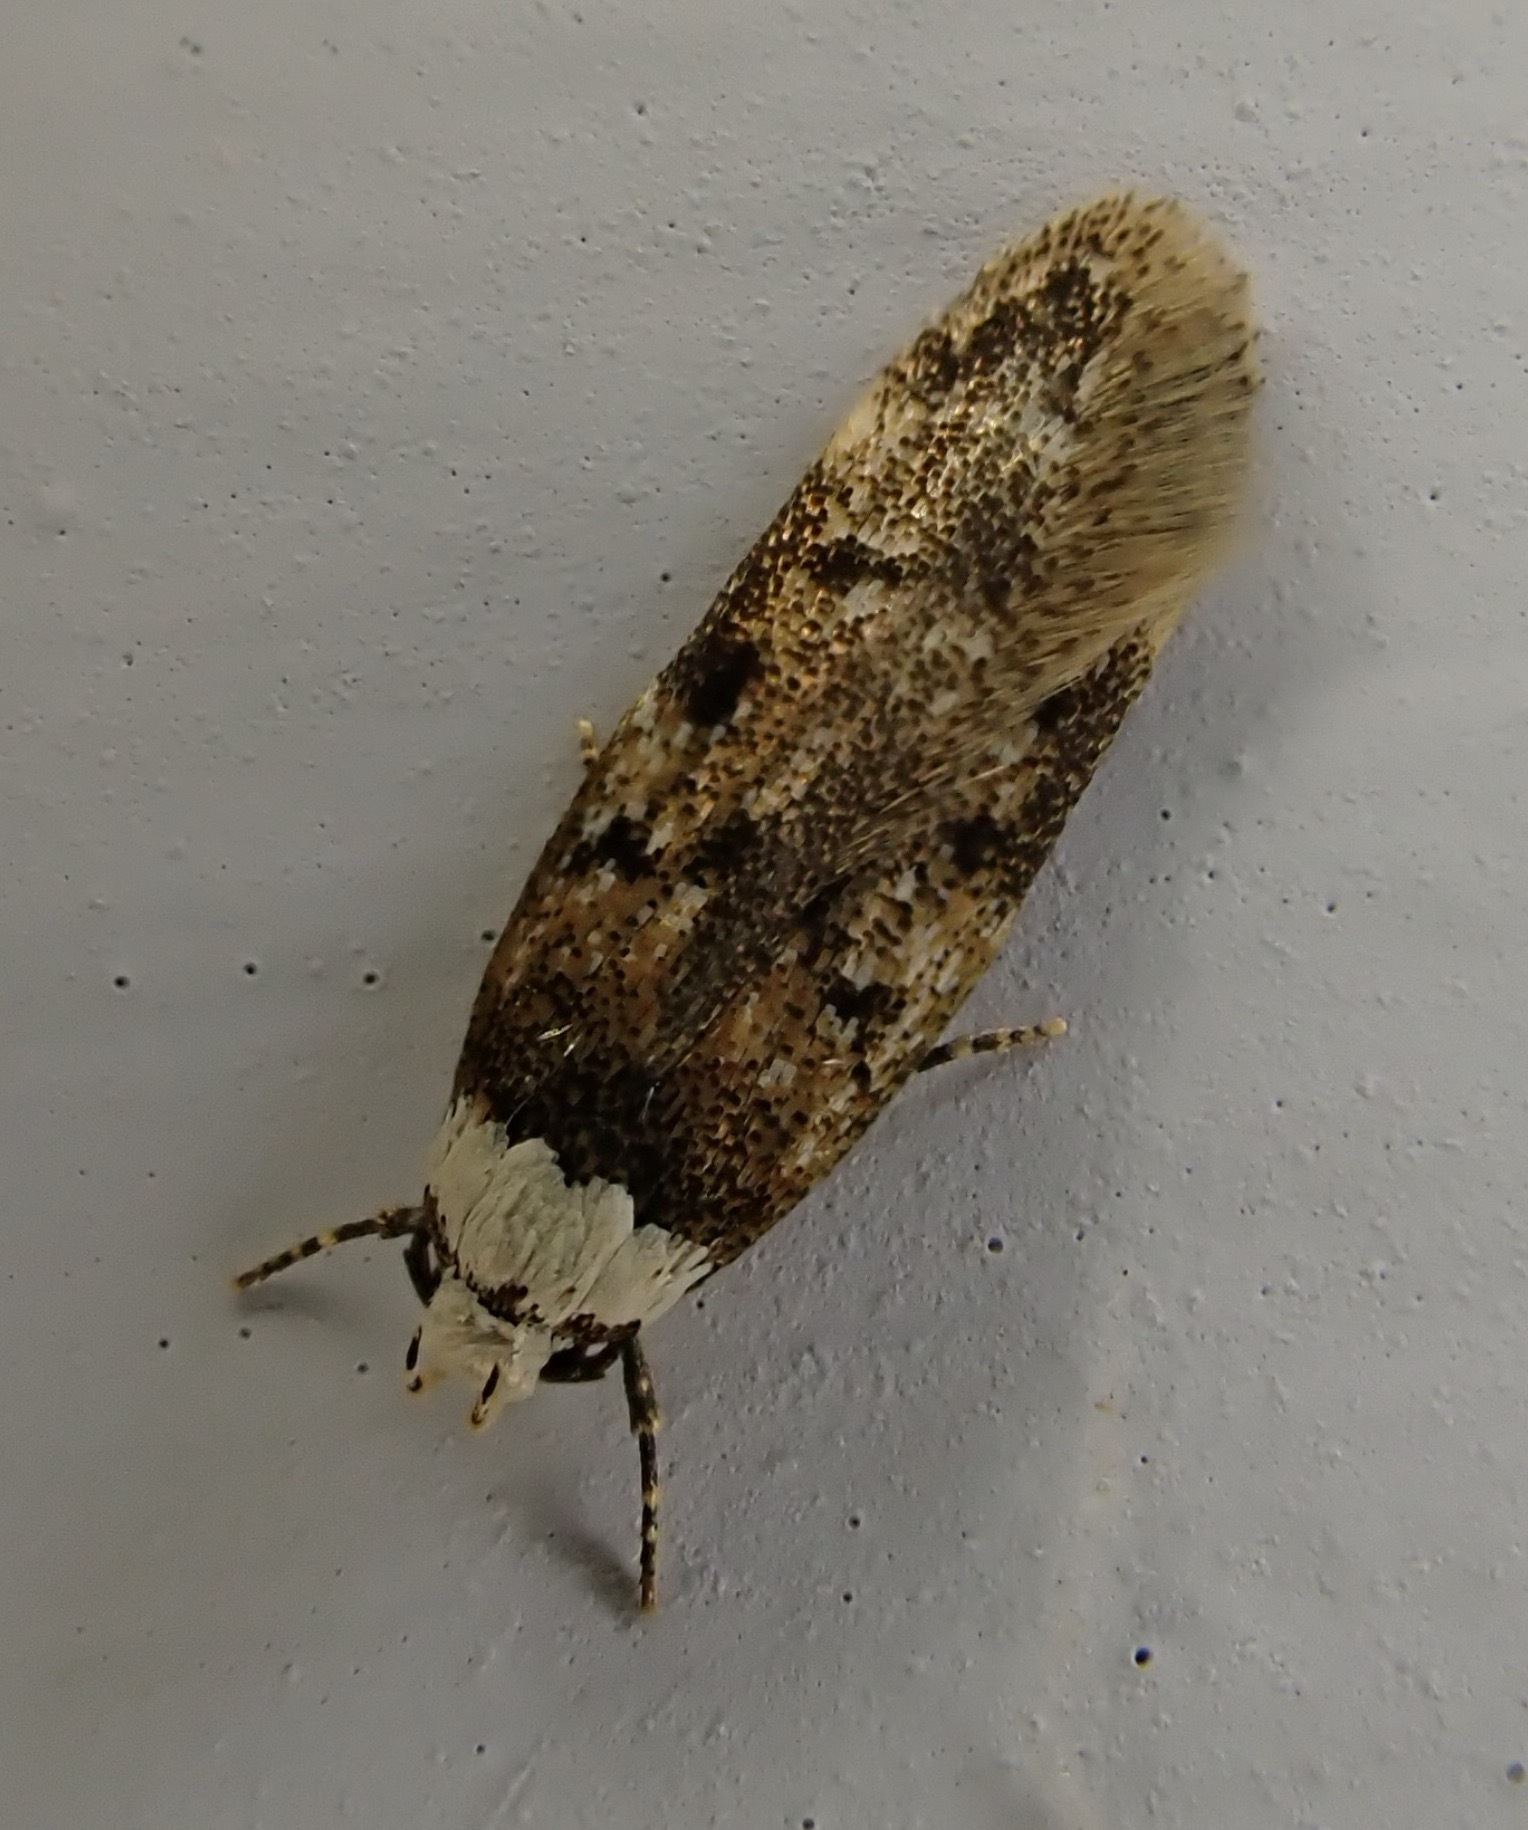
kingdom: Animalia
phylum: Arthropoda
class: Insecta
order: Lepidoptera
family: Oecophoridae
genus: Endrosis
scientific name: Endrosis sarcitrella
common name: White-shouldered house moth
